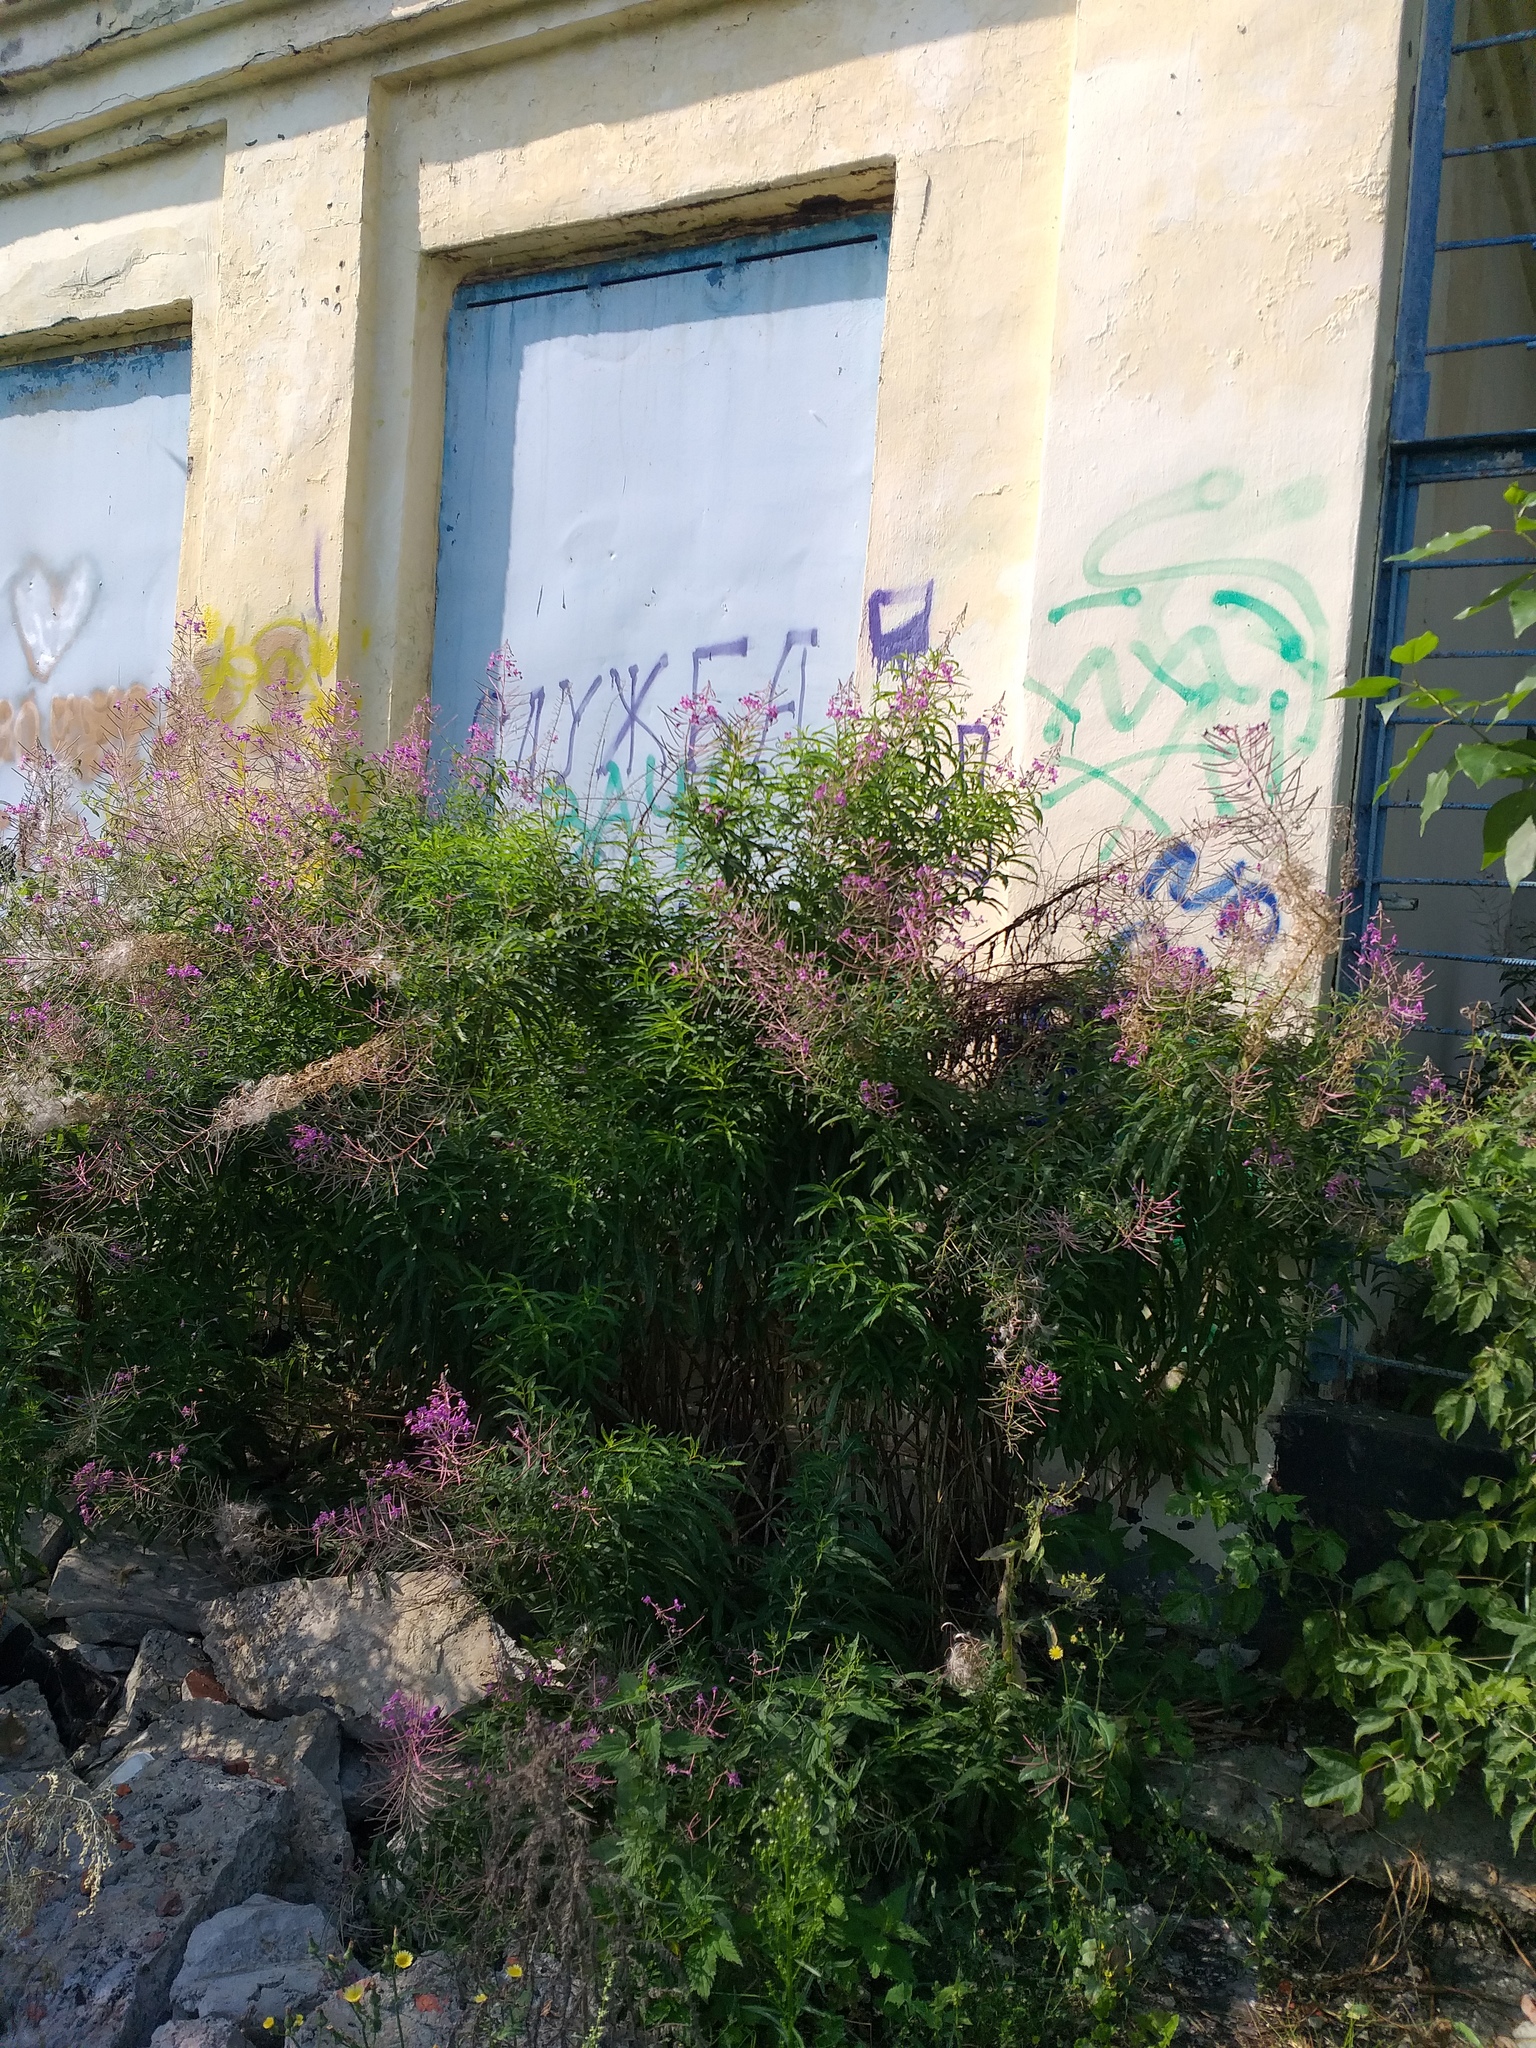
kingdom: Plantae
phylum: Tracheophyta
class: Magnoliopsida
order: Myrtales
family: Onagraceae
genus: Chamaenerion
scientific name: Chamaenerion angustifolium
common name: Fireweed
